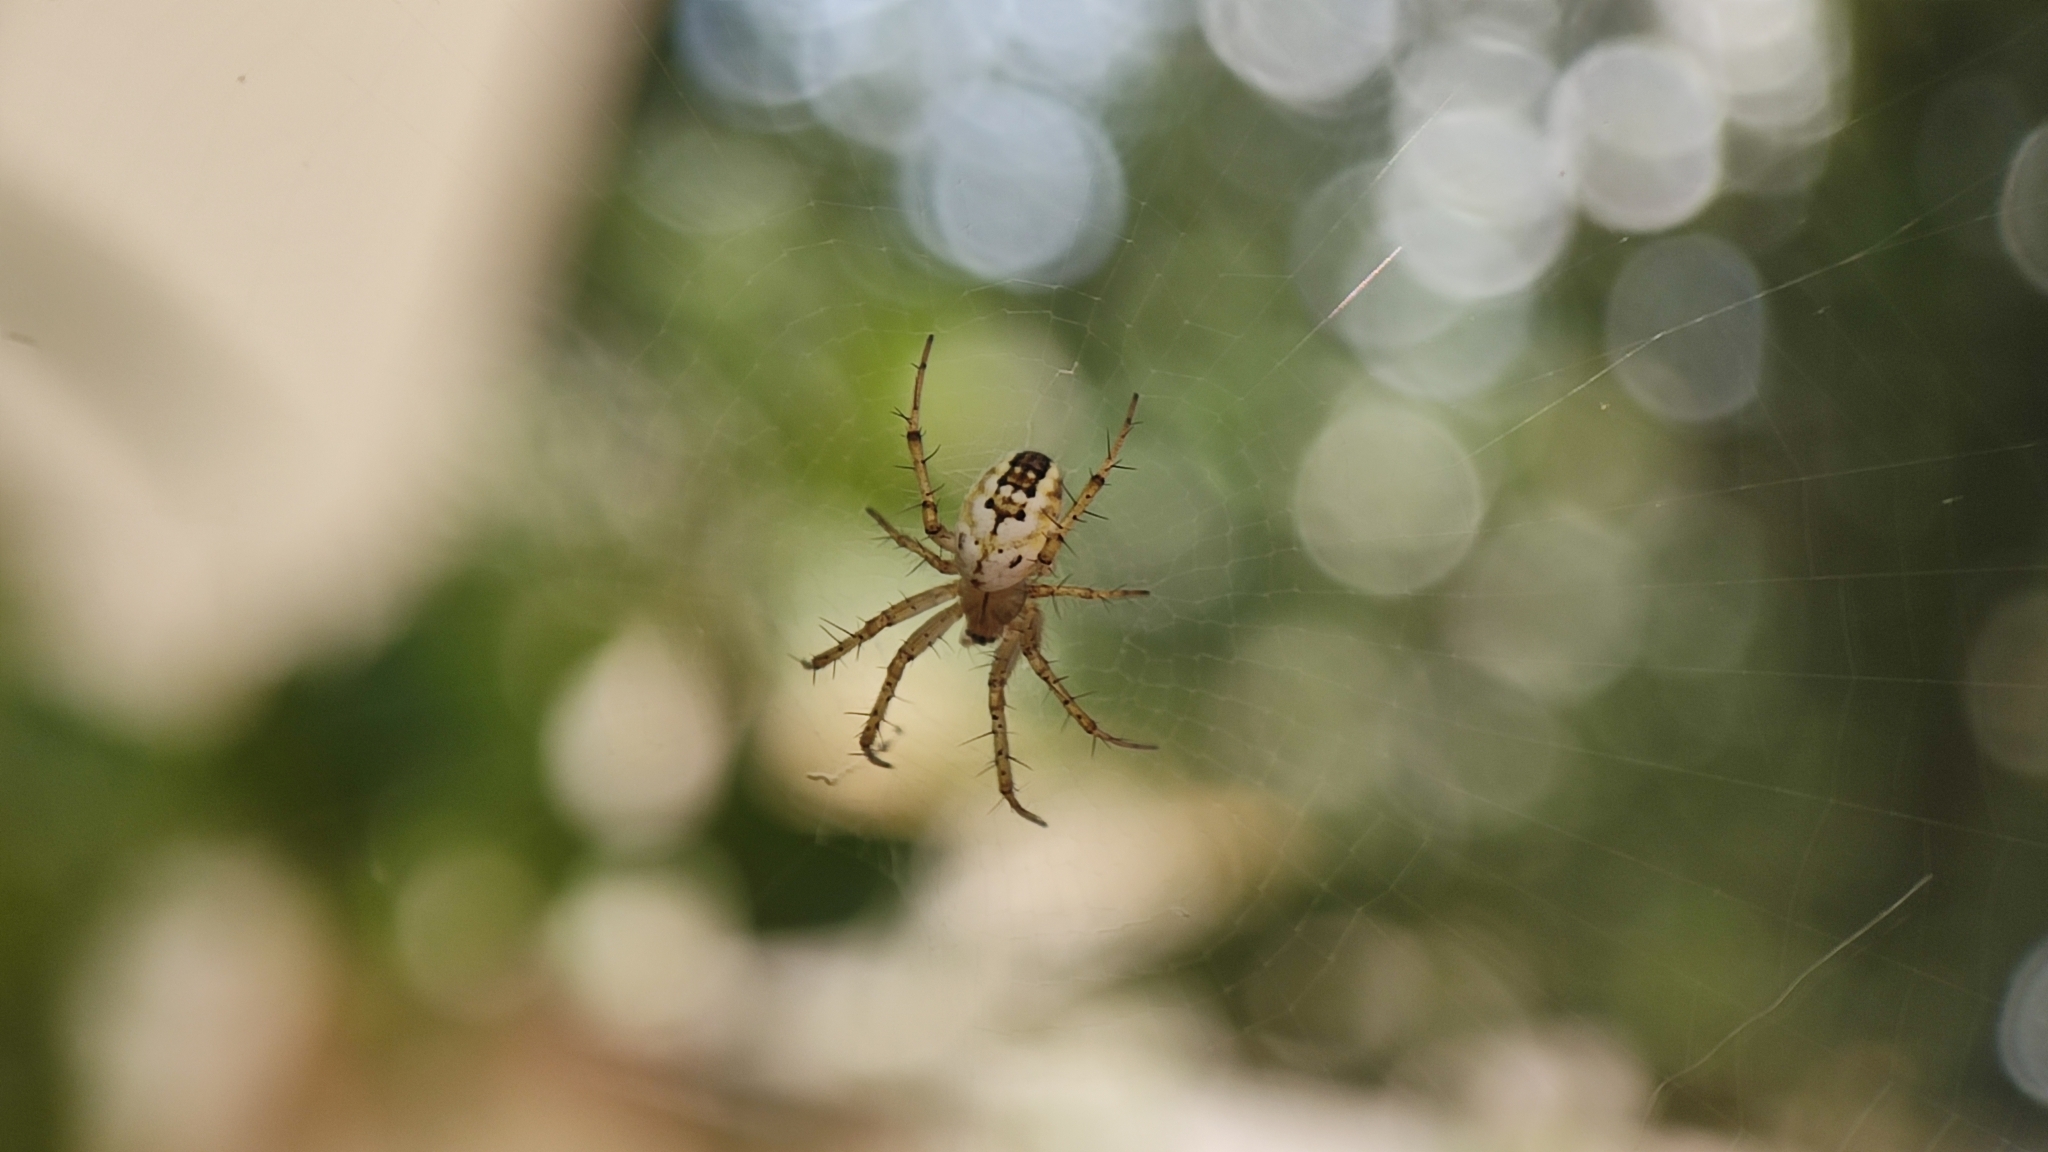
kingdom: Animalia
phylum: Arthropoda
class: Arachnida
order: Araneae
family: Araneidae
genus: Mangora
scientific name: Mangora acalypha
